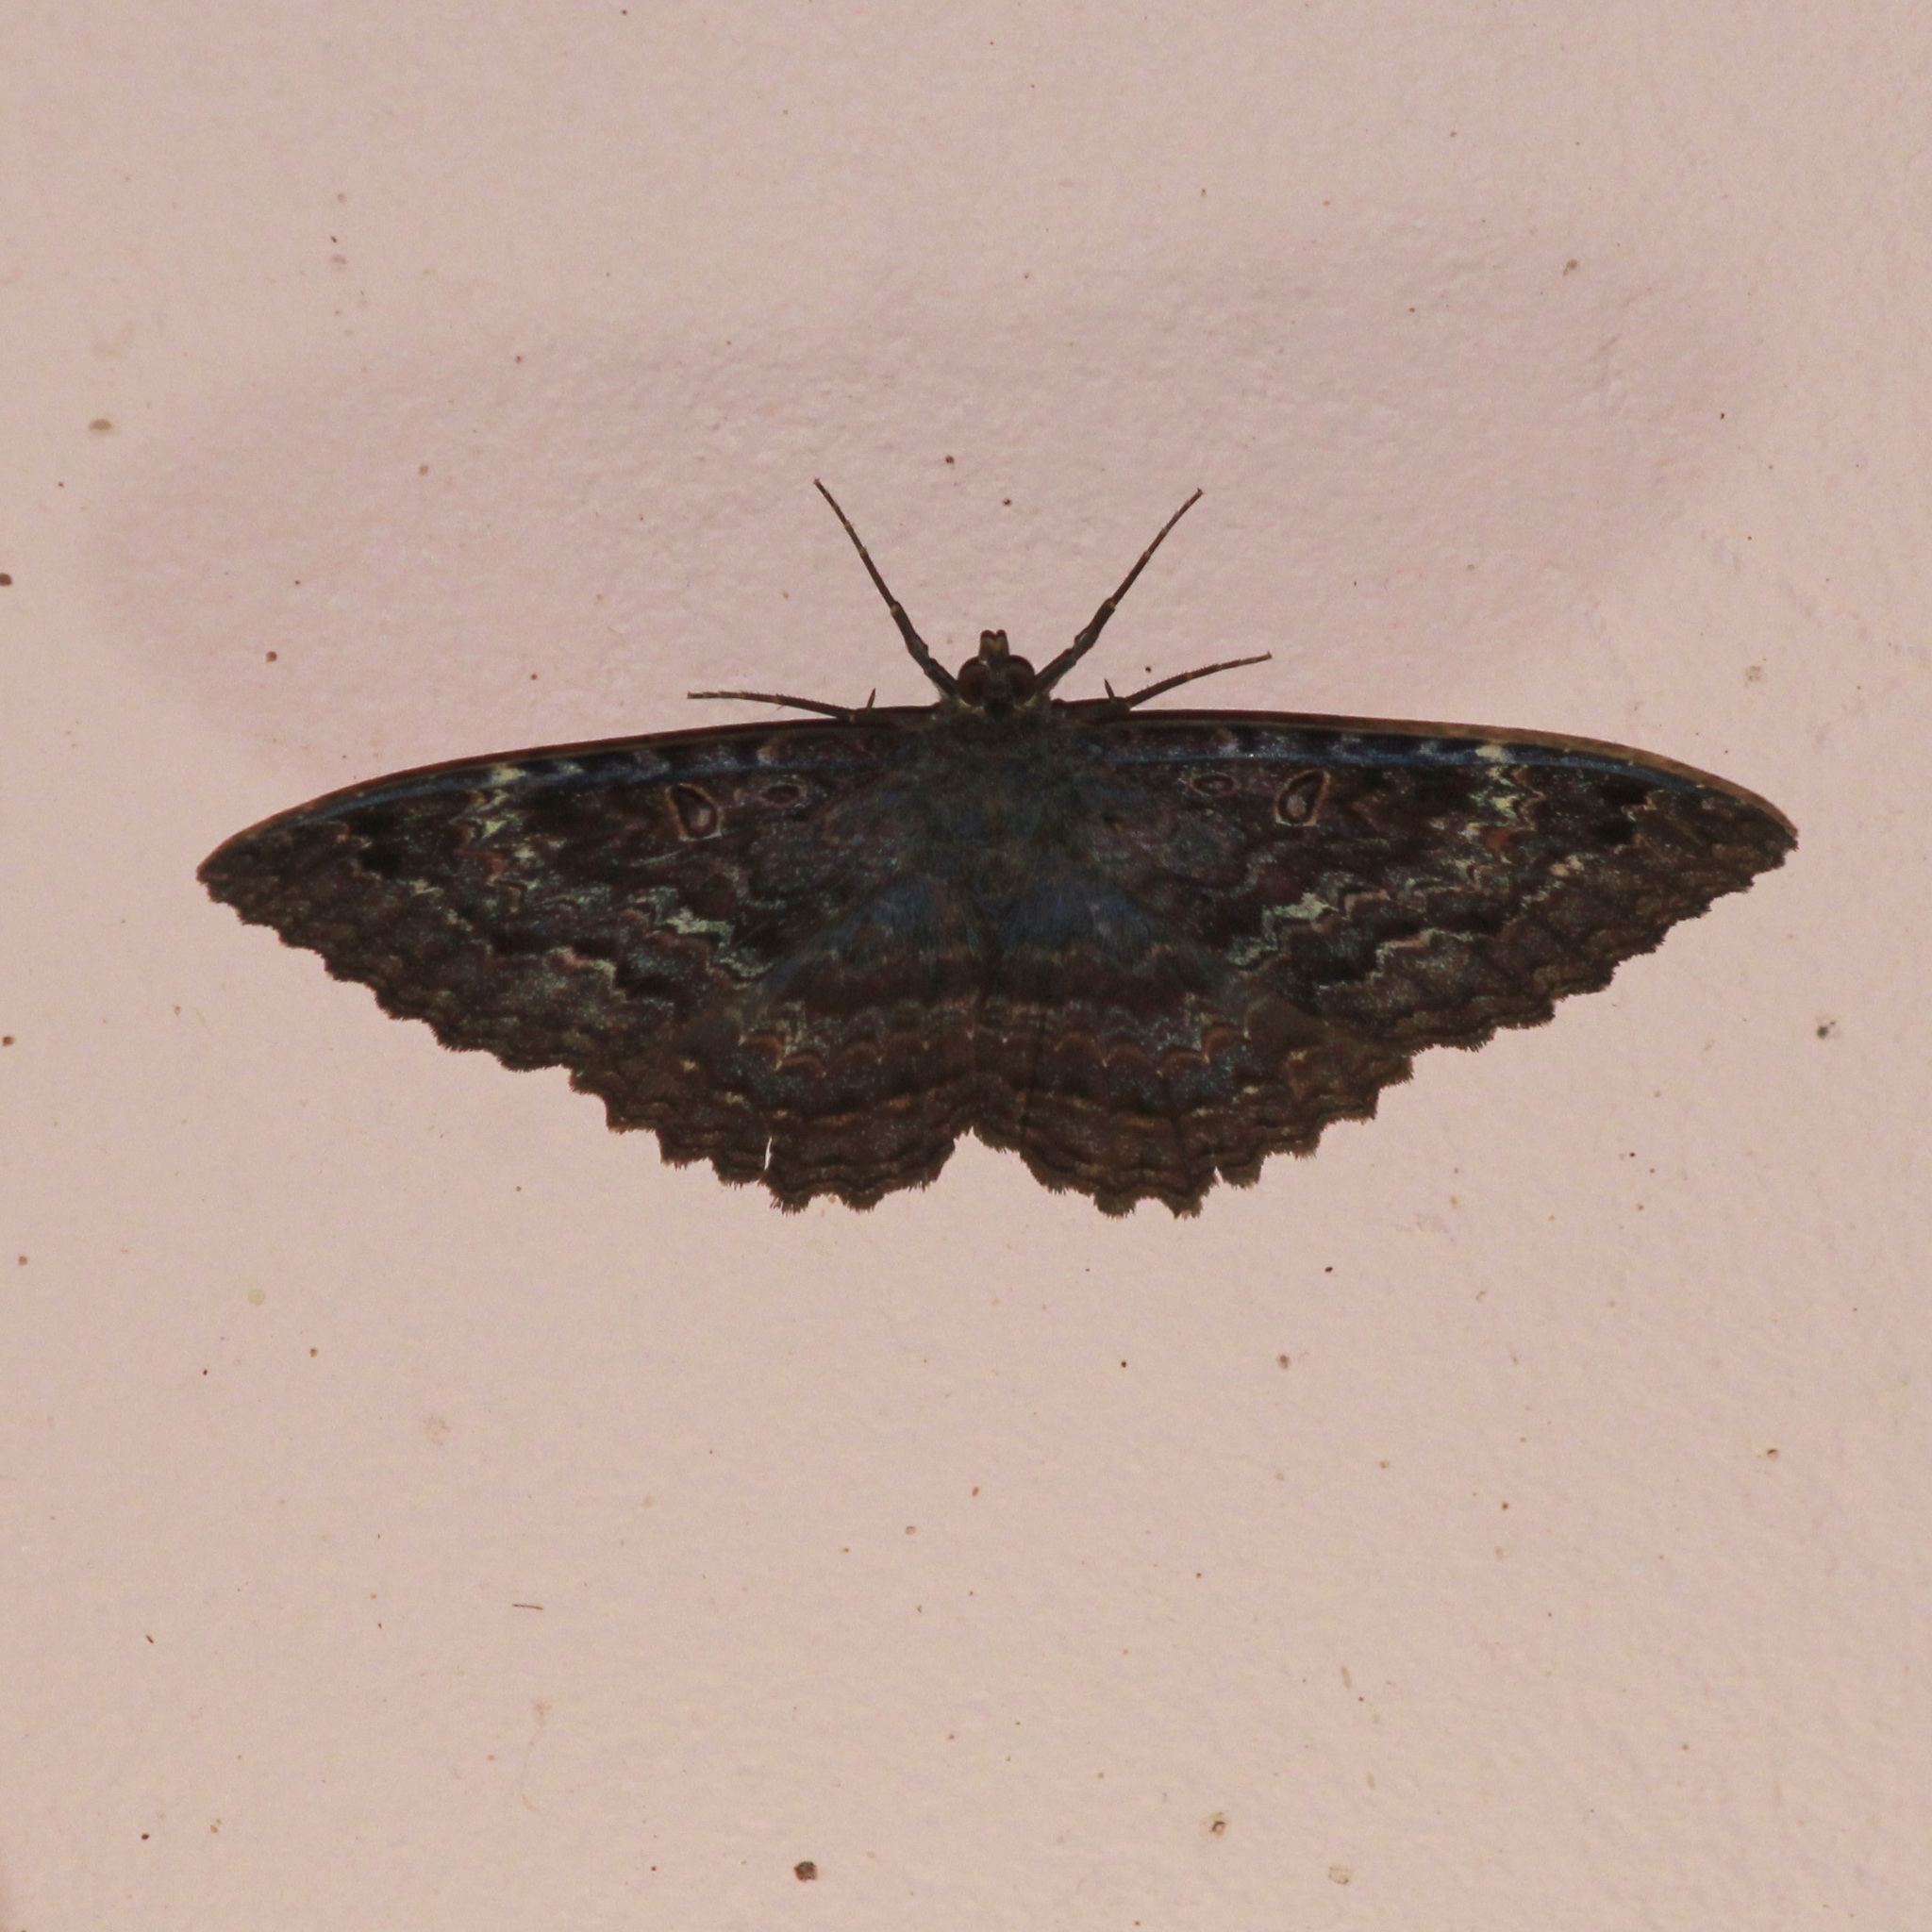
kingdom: Animalia
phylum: Arthropoda
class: Insecta
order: Lepidoptera
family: Erebidae
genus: Letis
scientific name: Letis iphianasse
